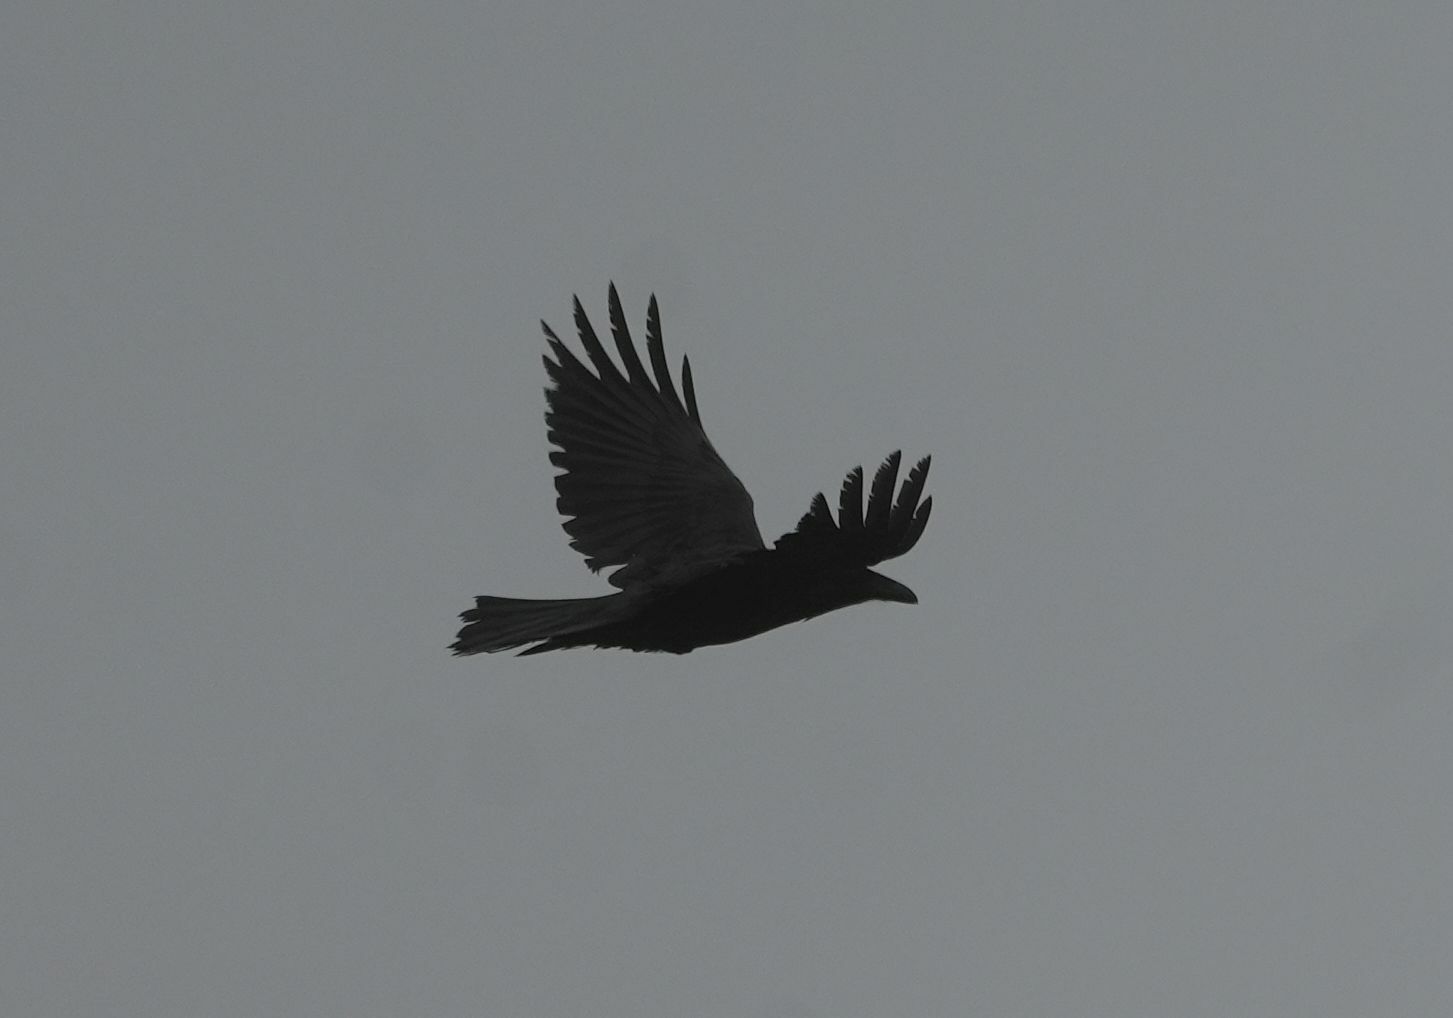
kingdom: Animalia
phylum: Chordata
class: Aves
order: Passeriformes
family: Corvidae
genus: Corvus
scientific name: Corvus corax
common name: Common raven
